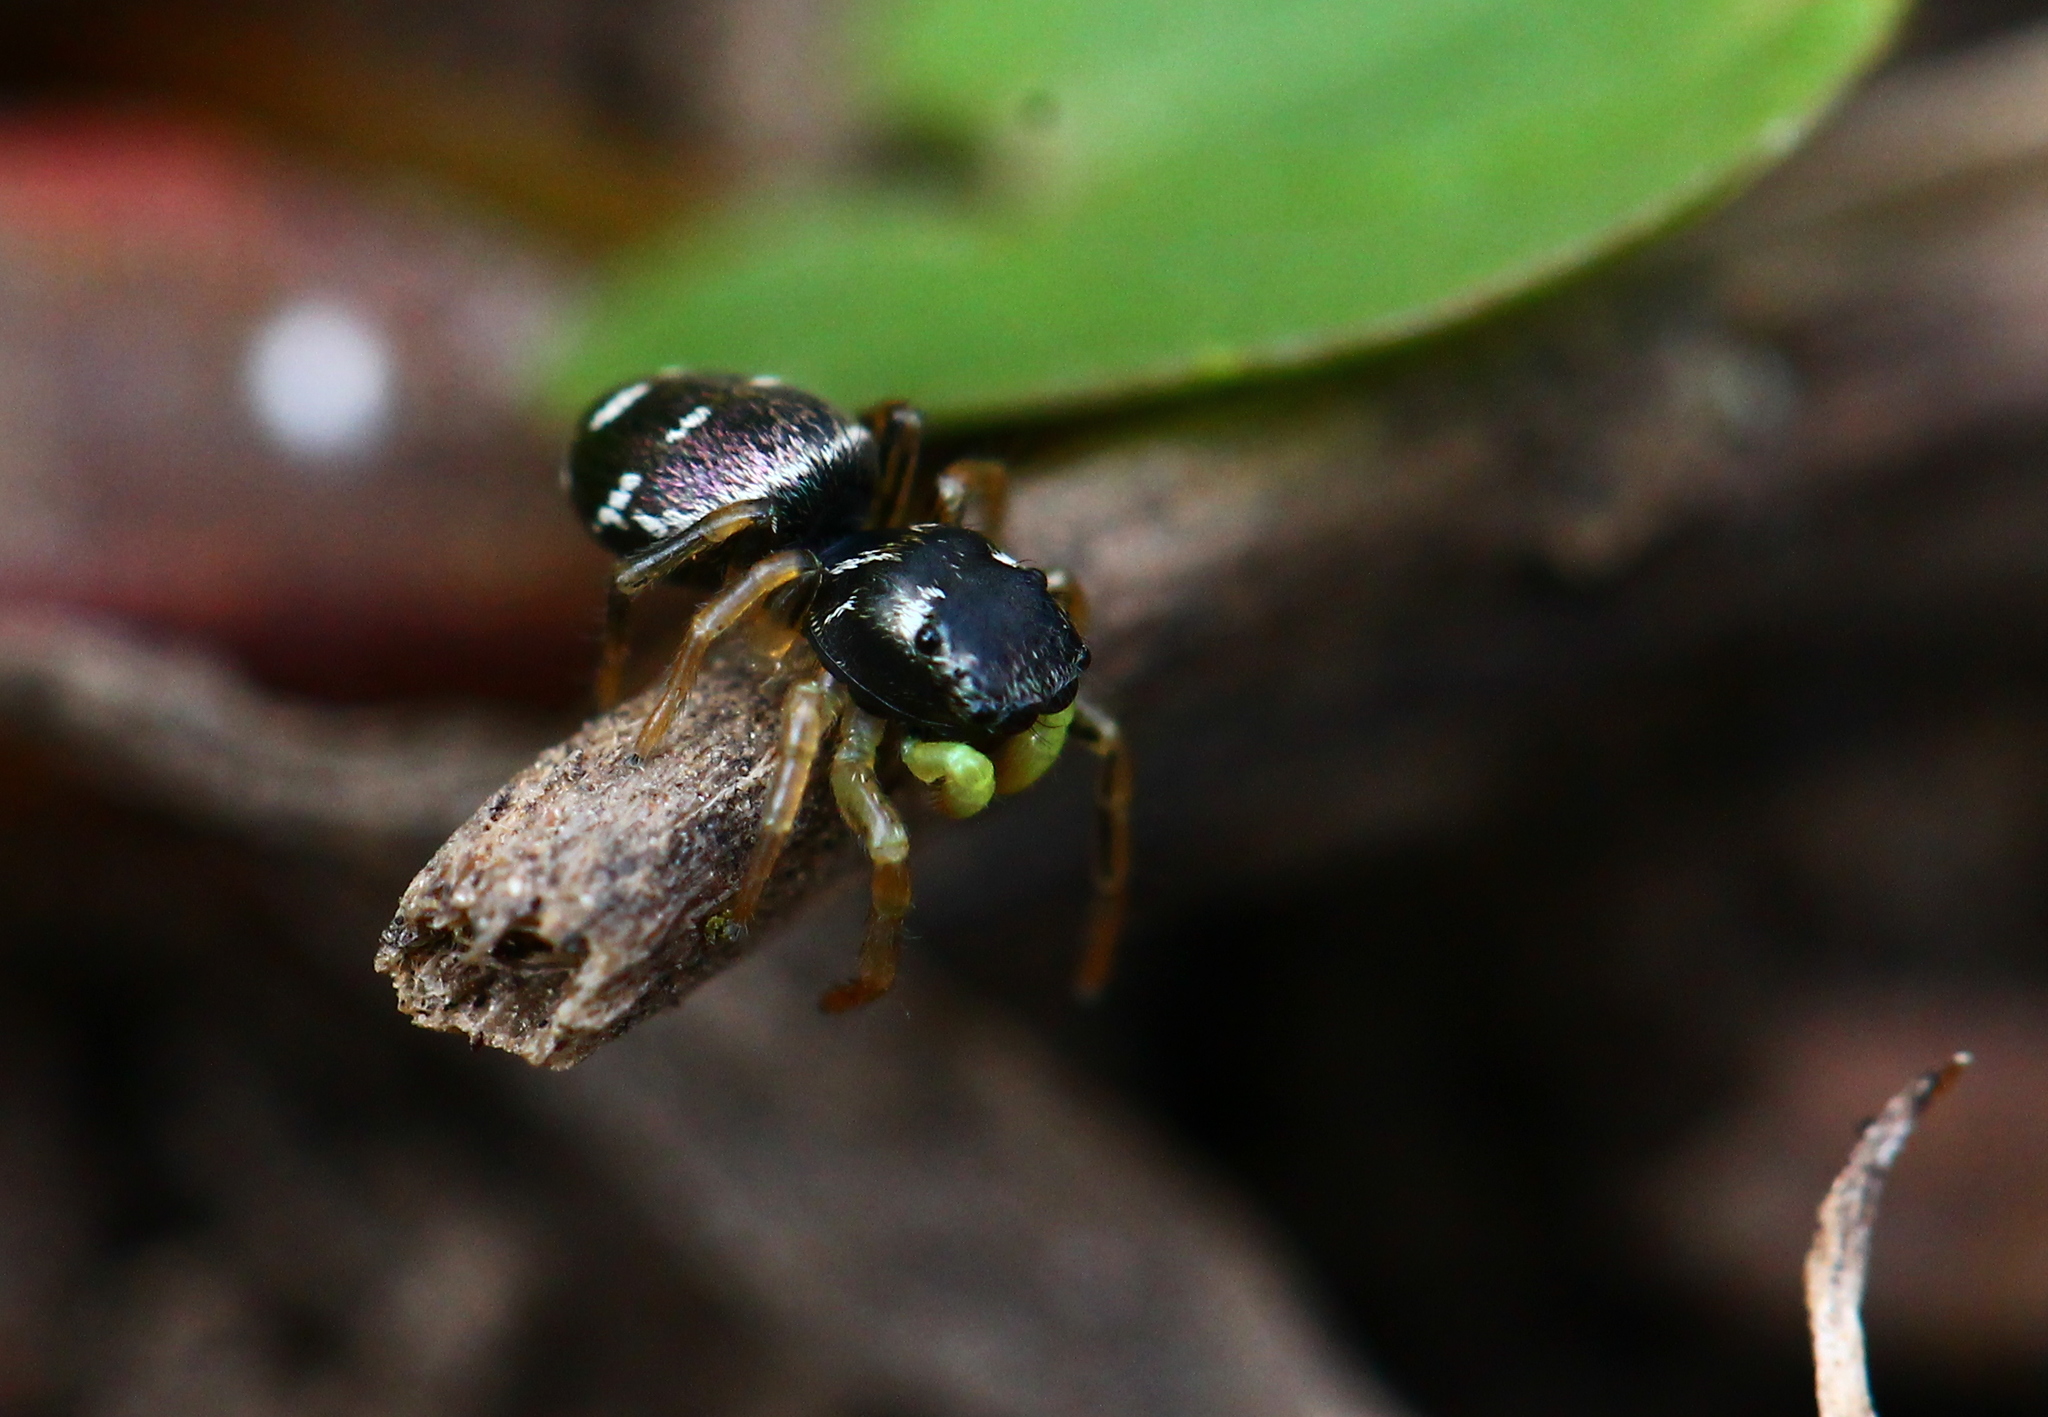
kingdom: Animalia
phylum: Arthropoda
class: Arachnida
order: Araneae
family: Salticidae
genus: Heliophanus
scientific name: Heliophanus cupreus
